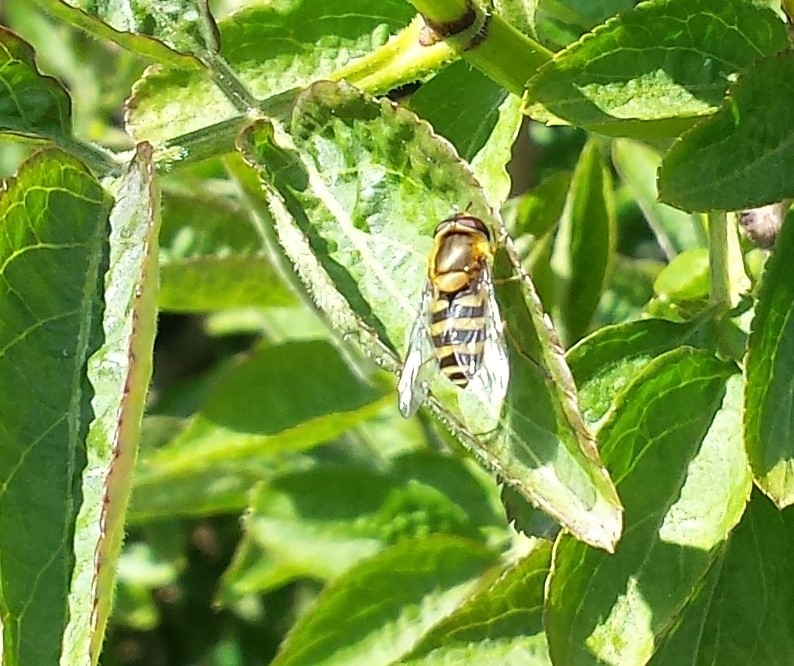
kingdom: Animalia
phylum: Arthropoda
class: Insecta
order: Diptera
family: Syrphidae
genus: Syrphus
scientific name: Syrphus
